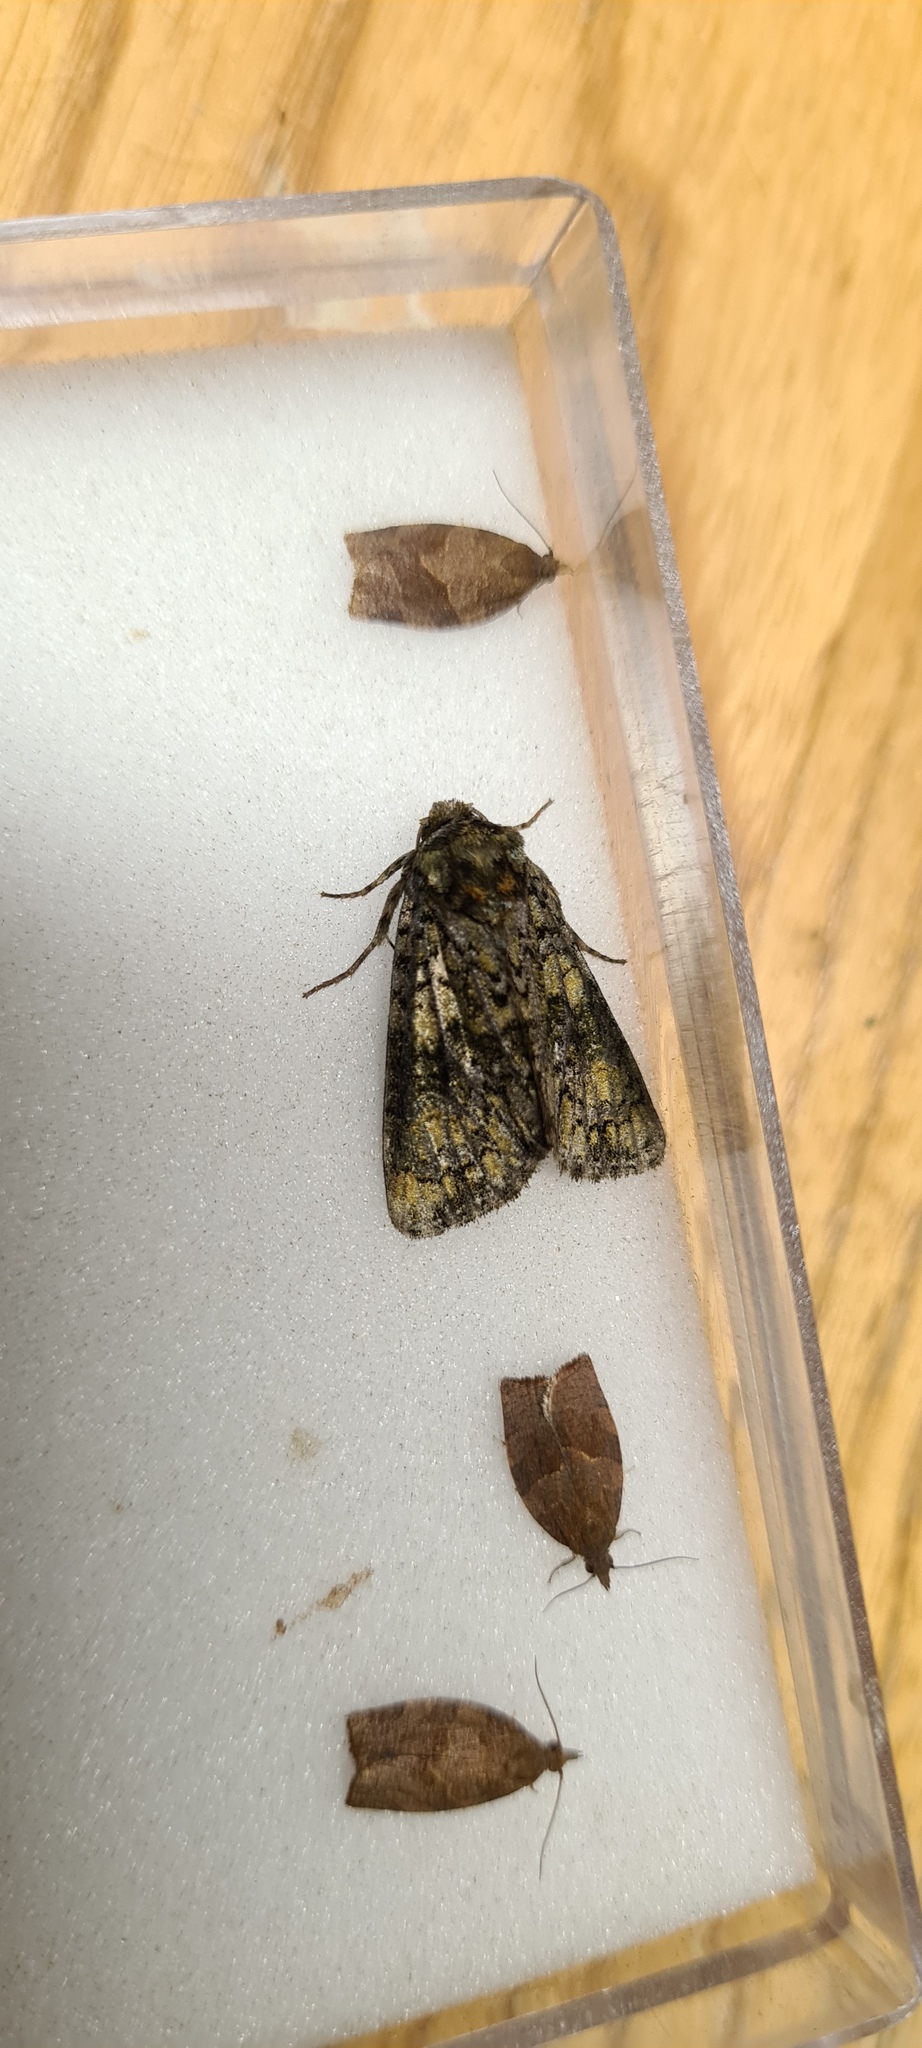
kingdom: Animalia
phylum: Arthropoda
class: Insecta
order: Lepidoptera
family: Noctuidae
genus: Craniophora
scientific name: Craniophora ligustri
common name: Coronet
